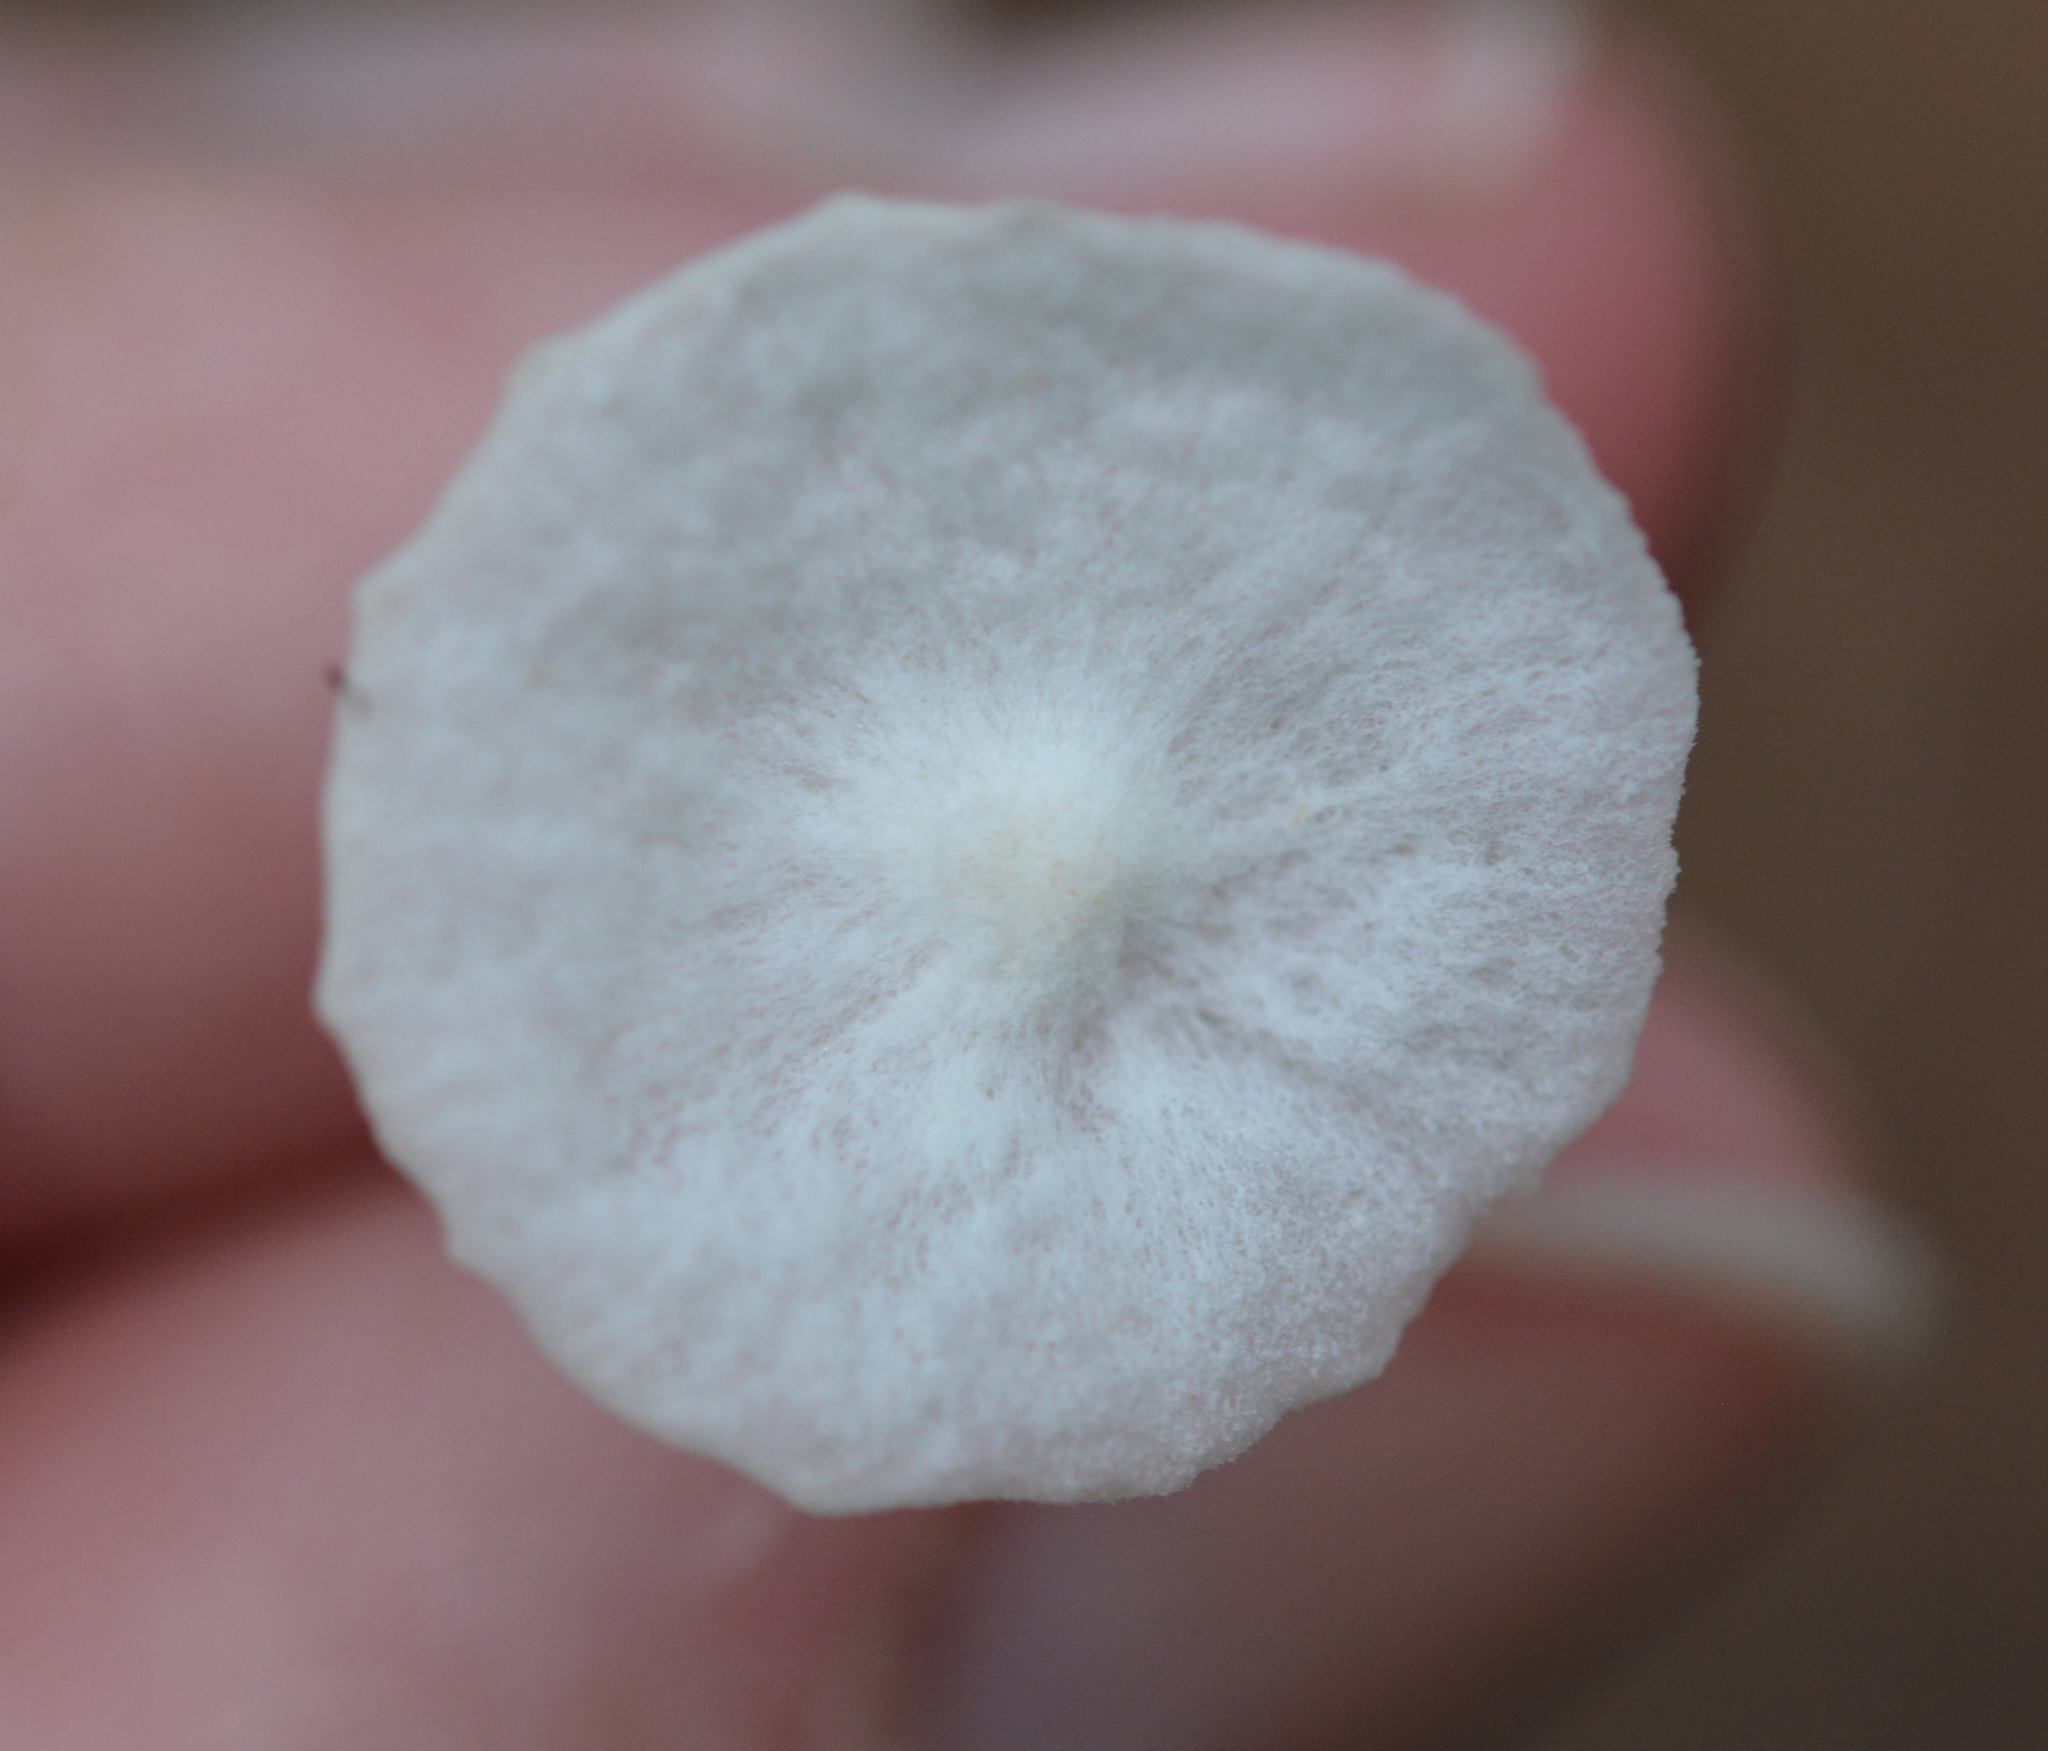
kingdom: Fungi
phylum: Basidiomycota
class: Agaricomycetes
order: Agaricales
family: Marasmiaceae
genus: Tetrapyrgos
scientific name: Tetrapyrgos nigripes
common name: Black-stalked marasmius
